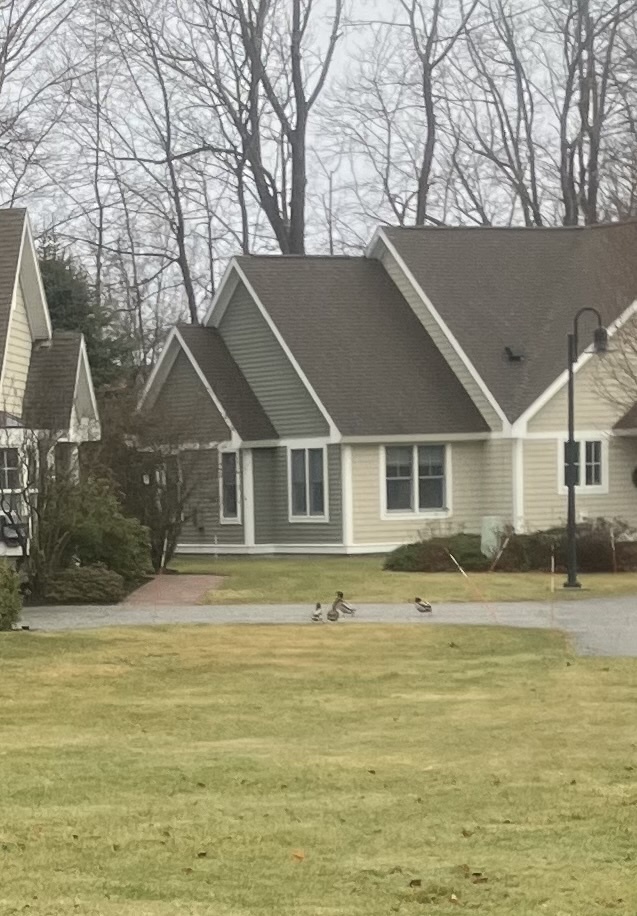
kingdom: Animalia
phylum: Chordata
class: Aves
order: Anseriformes
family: Anatidae
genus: Anas
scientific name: Anas platyrhynchos
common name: Mallard
